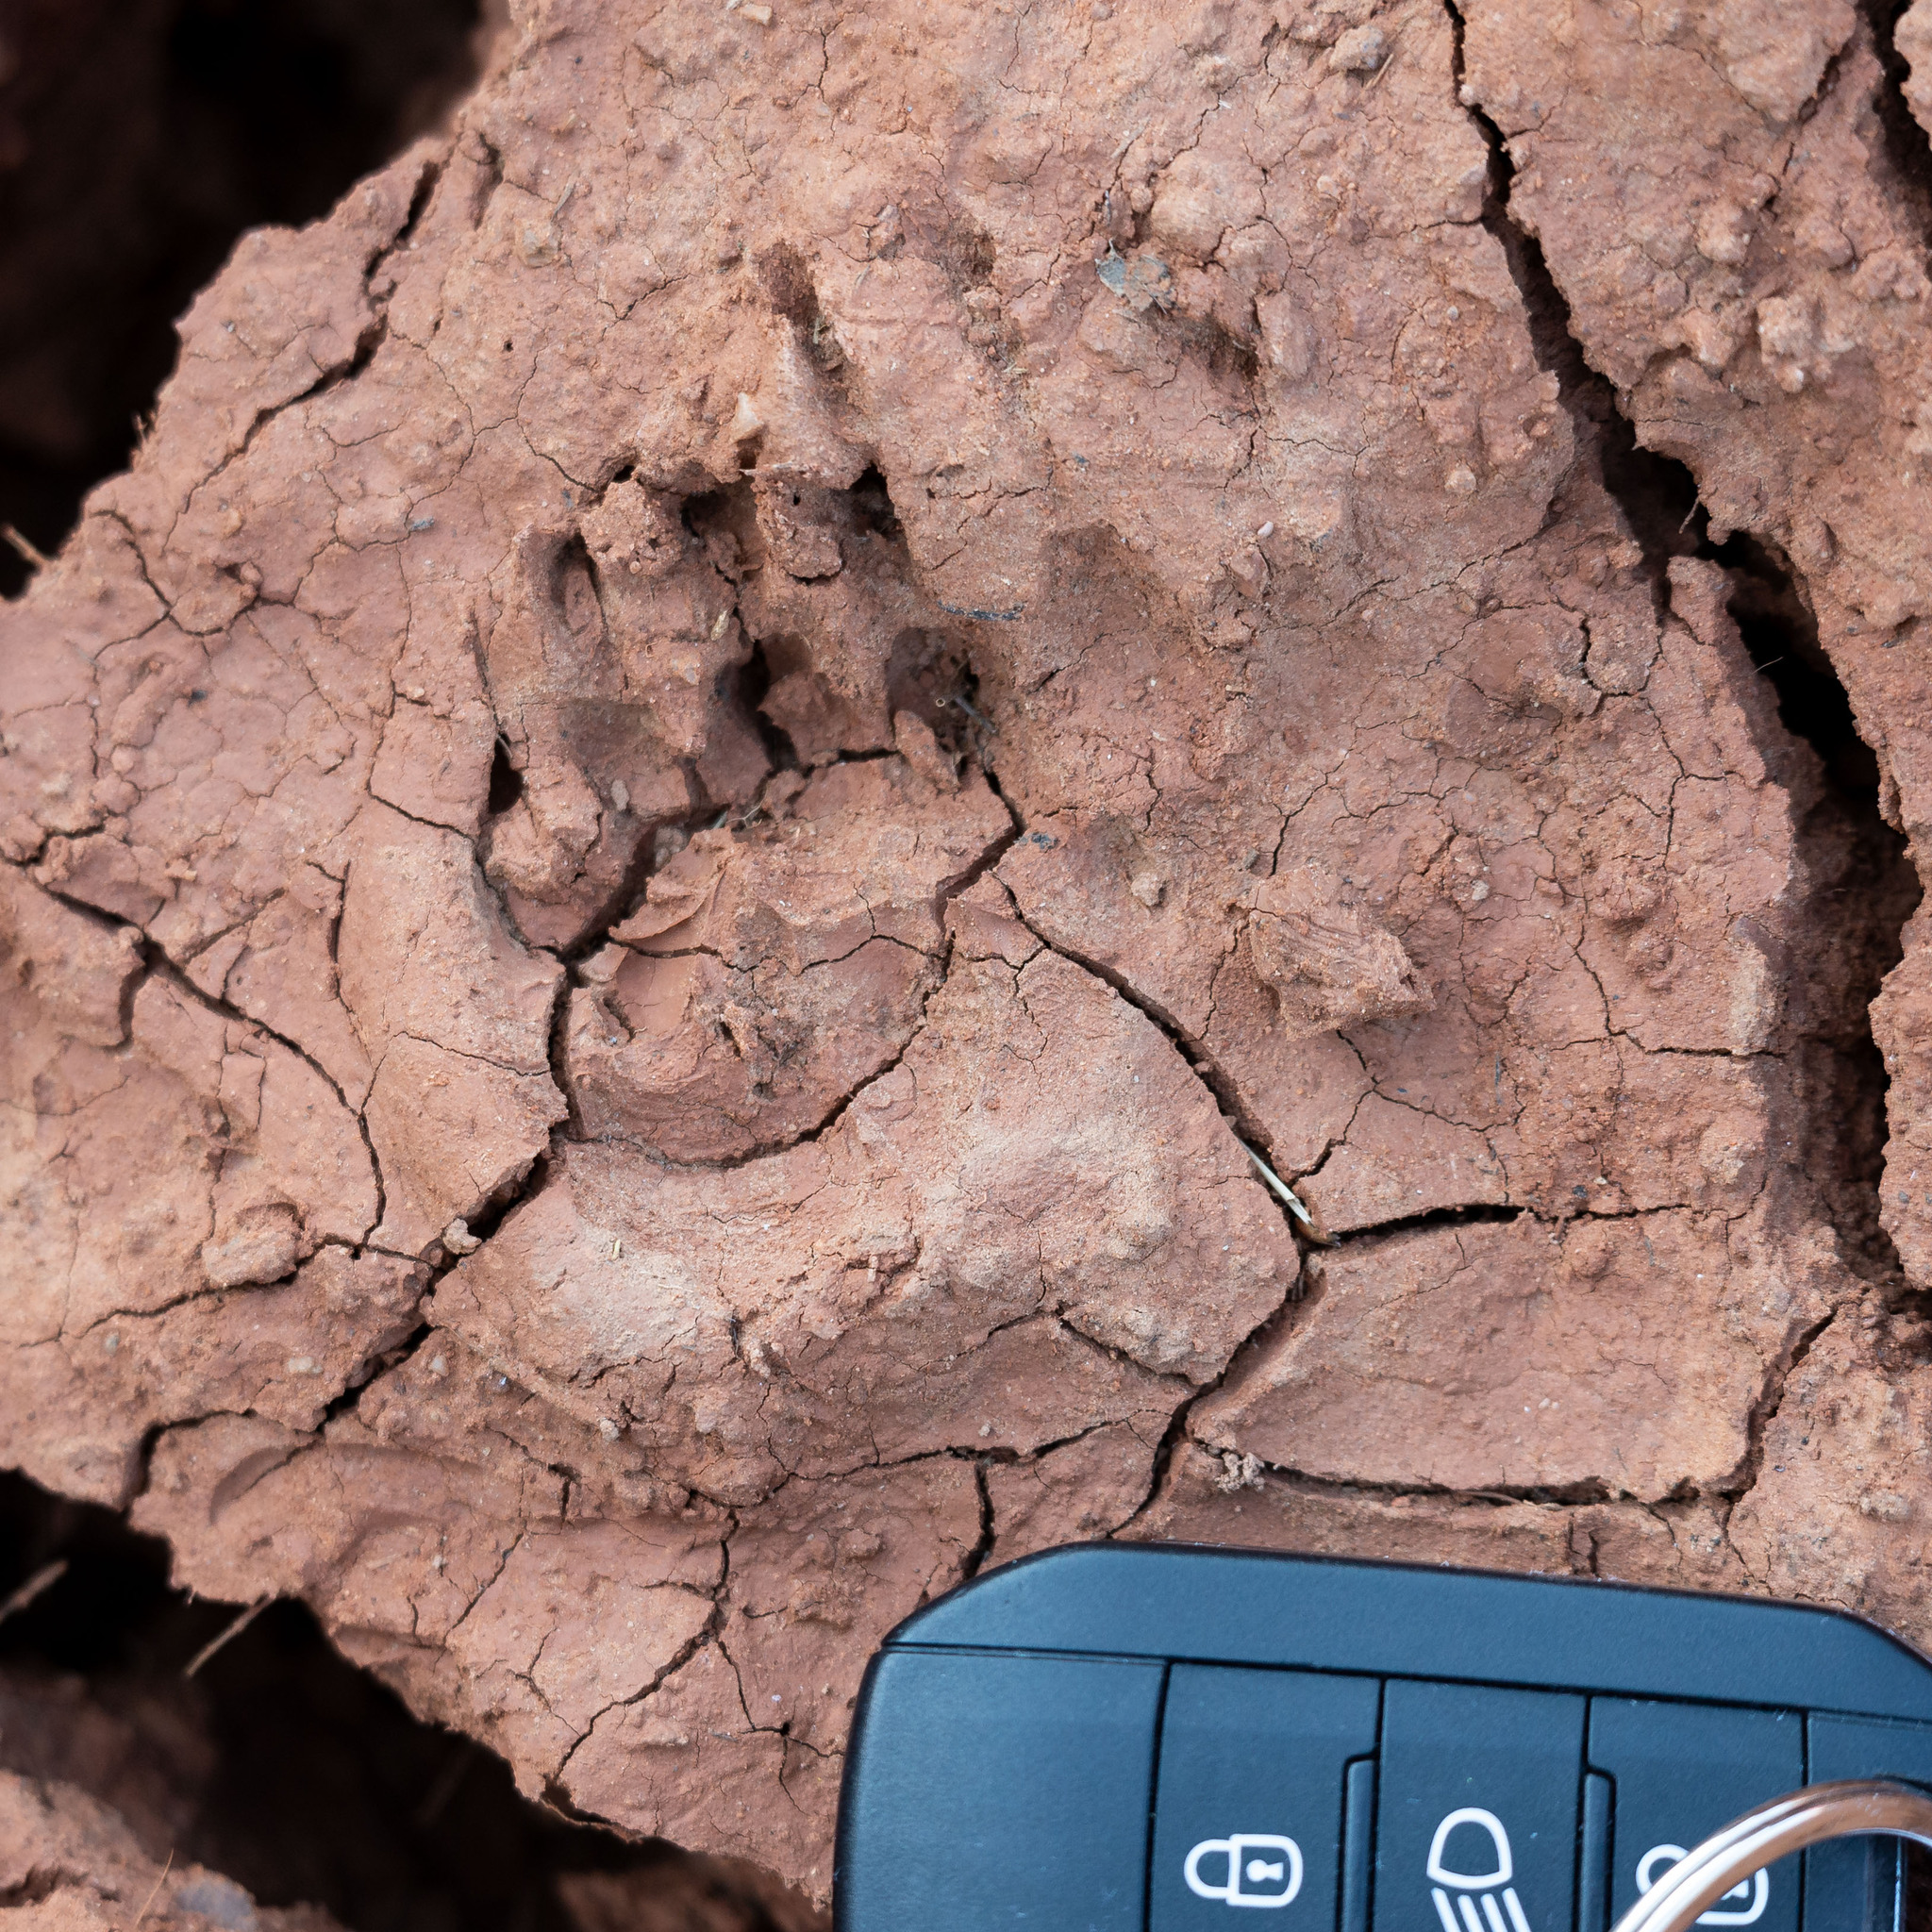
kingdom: Animalia
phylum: Chordata
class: Mammalia
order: Carnivora
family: Mustelidae
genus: Meles
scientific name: Meles meles
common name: Eurasian badger
